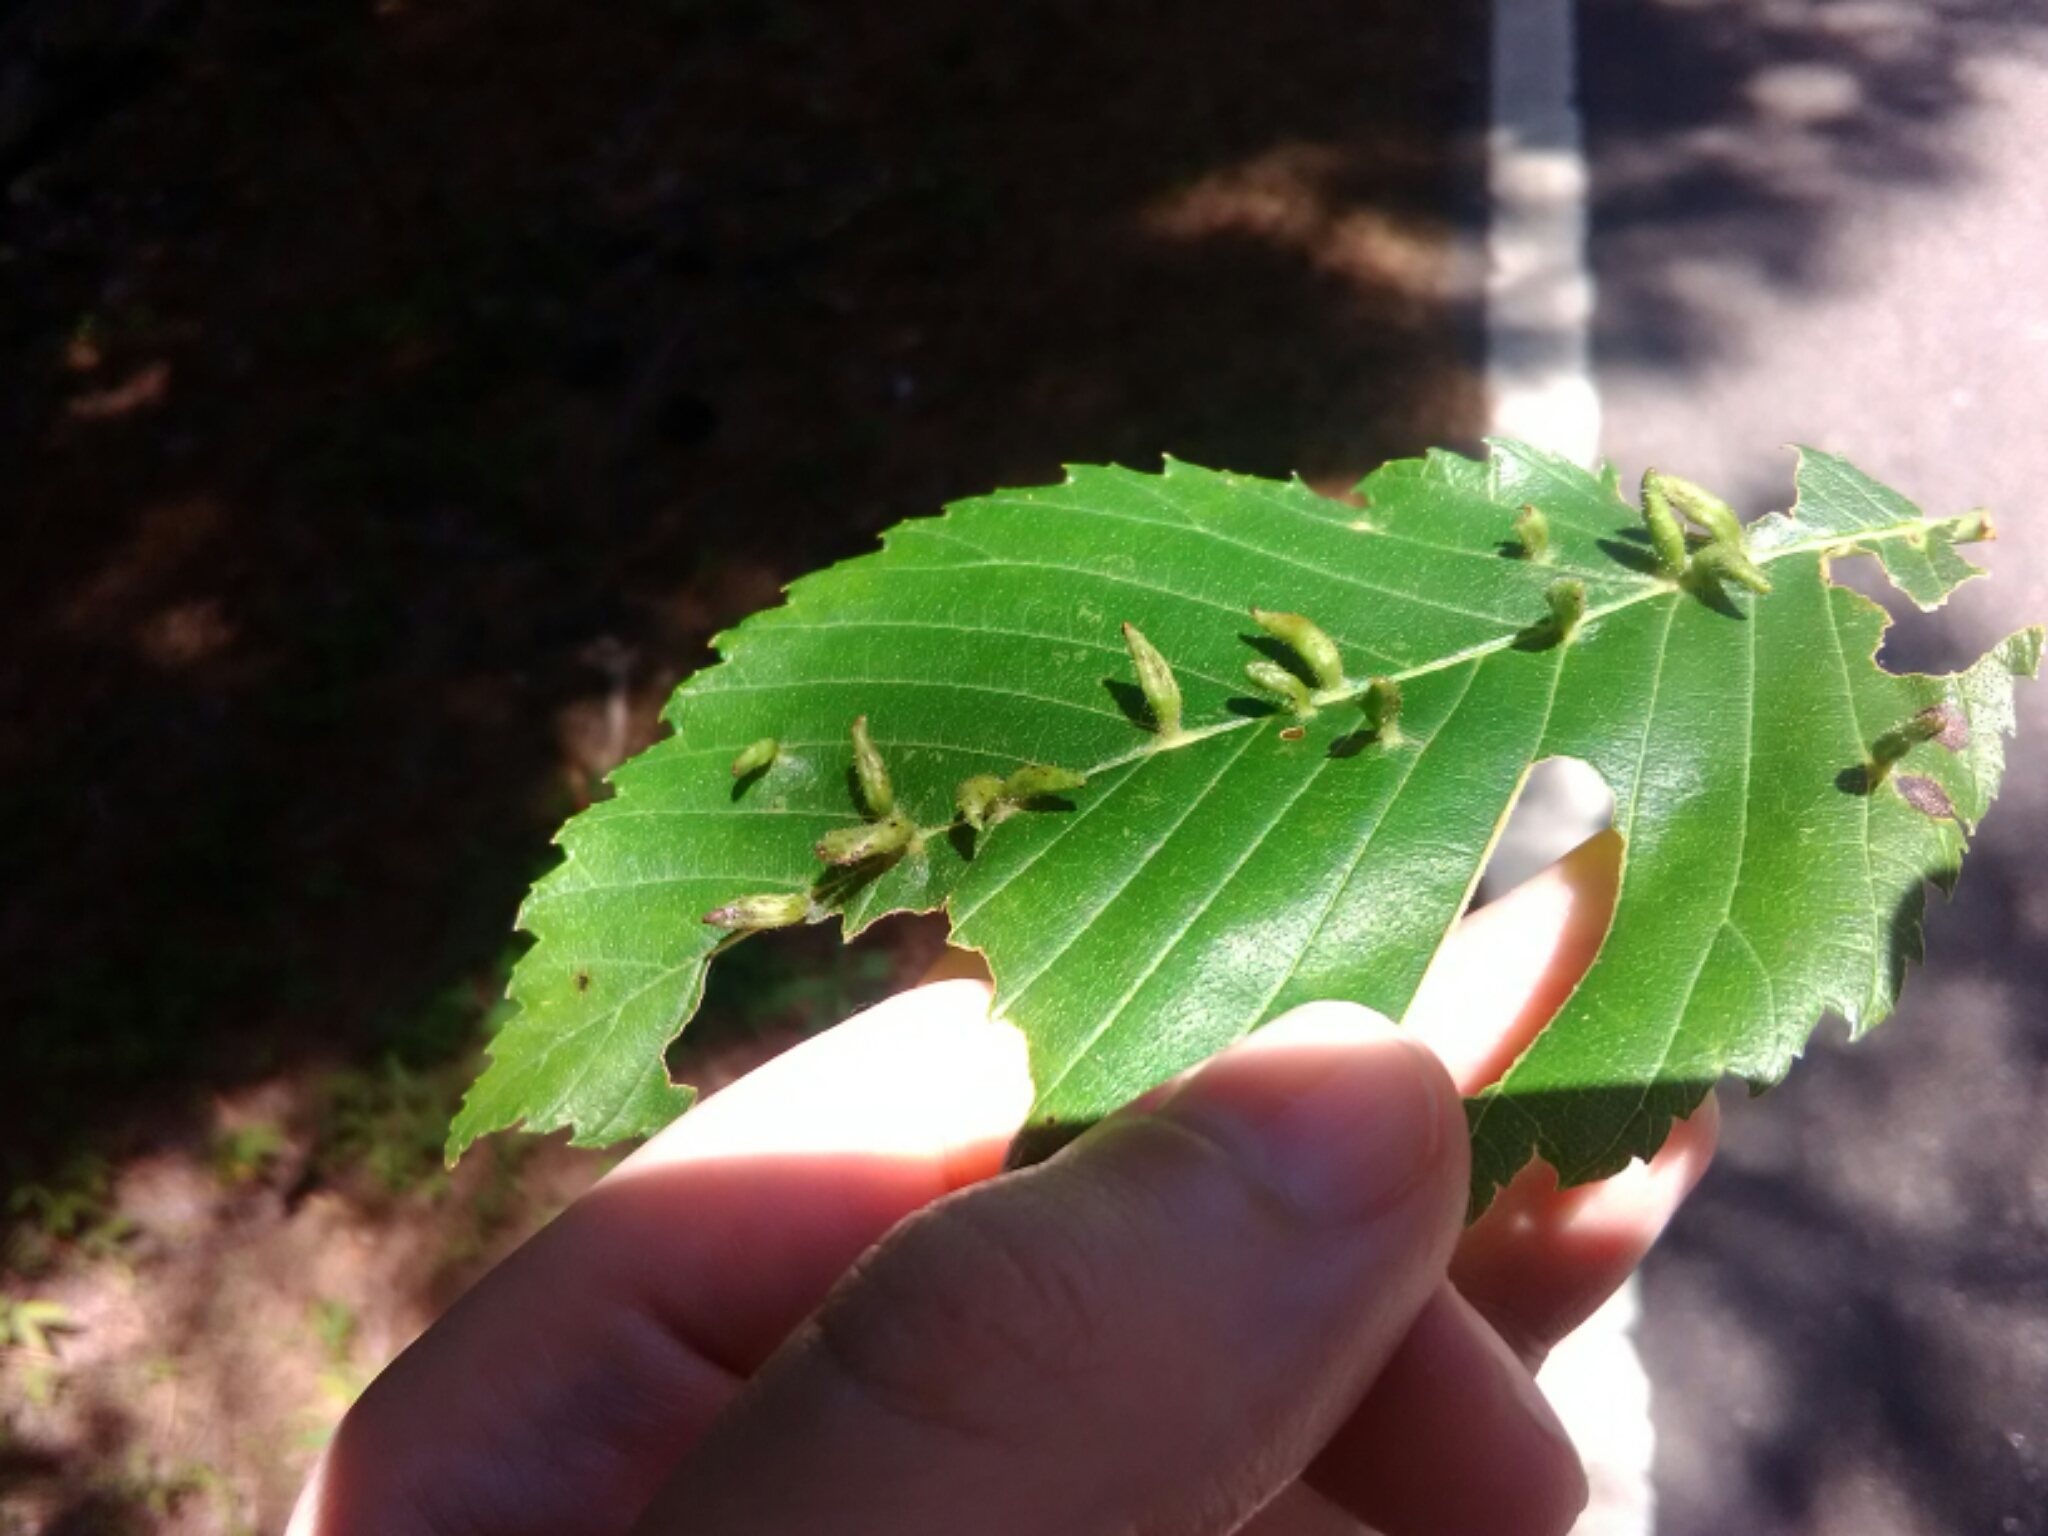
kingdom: Animalia
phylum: Arthropoda
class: Arachnida
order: Trombidiformes
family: Eriophyidae
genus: Aceria
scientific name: Aceria
